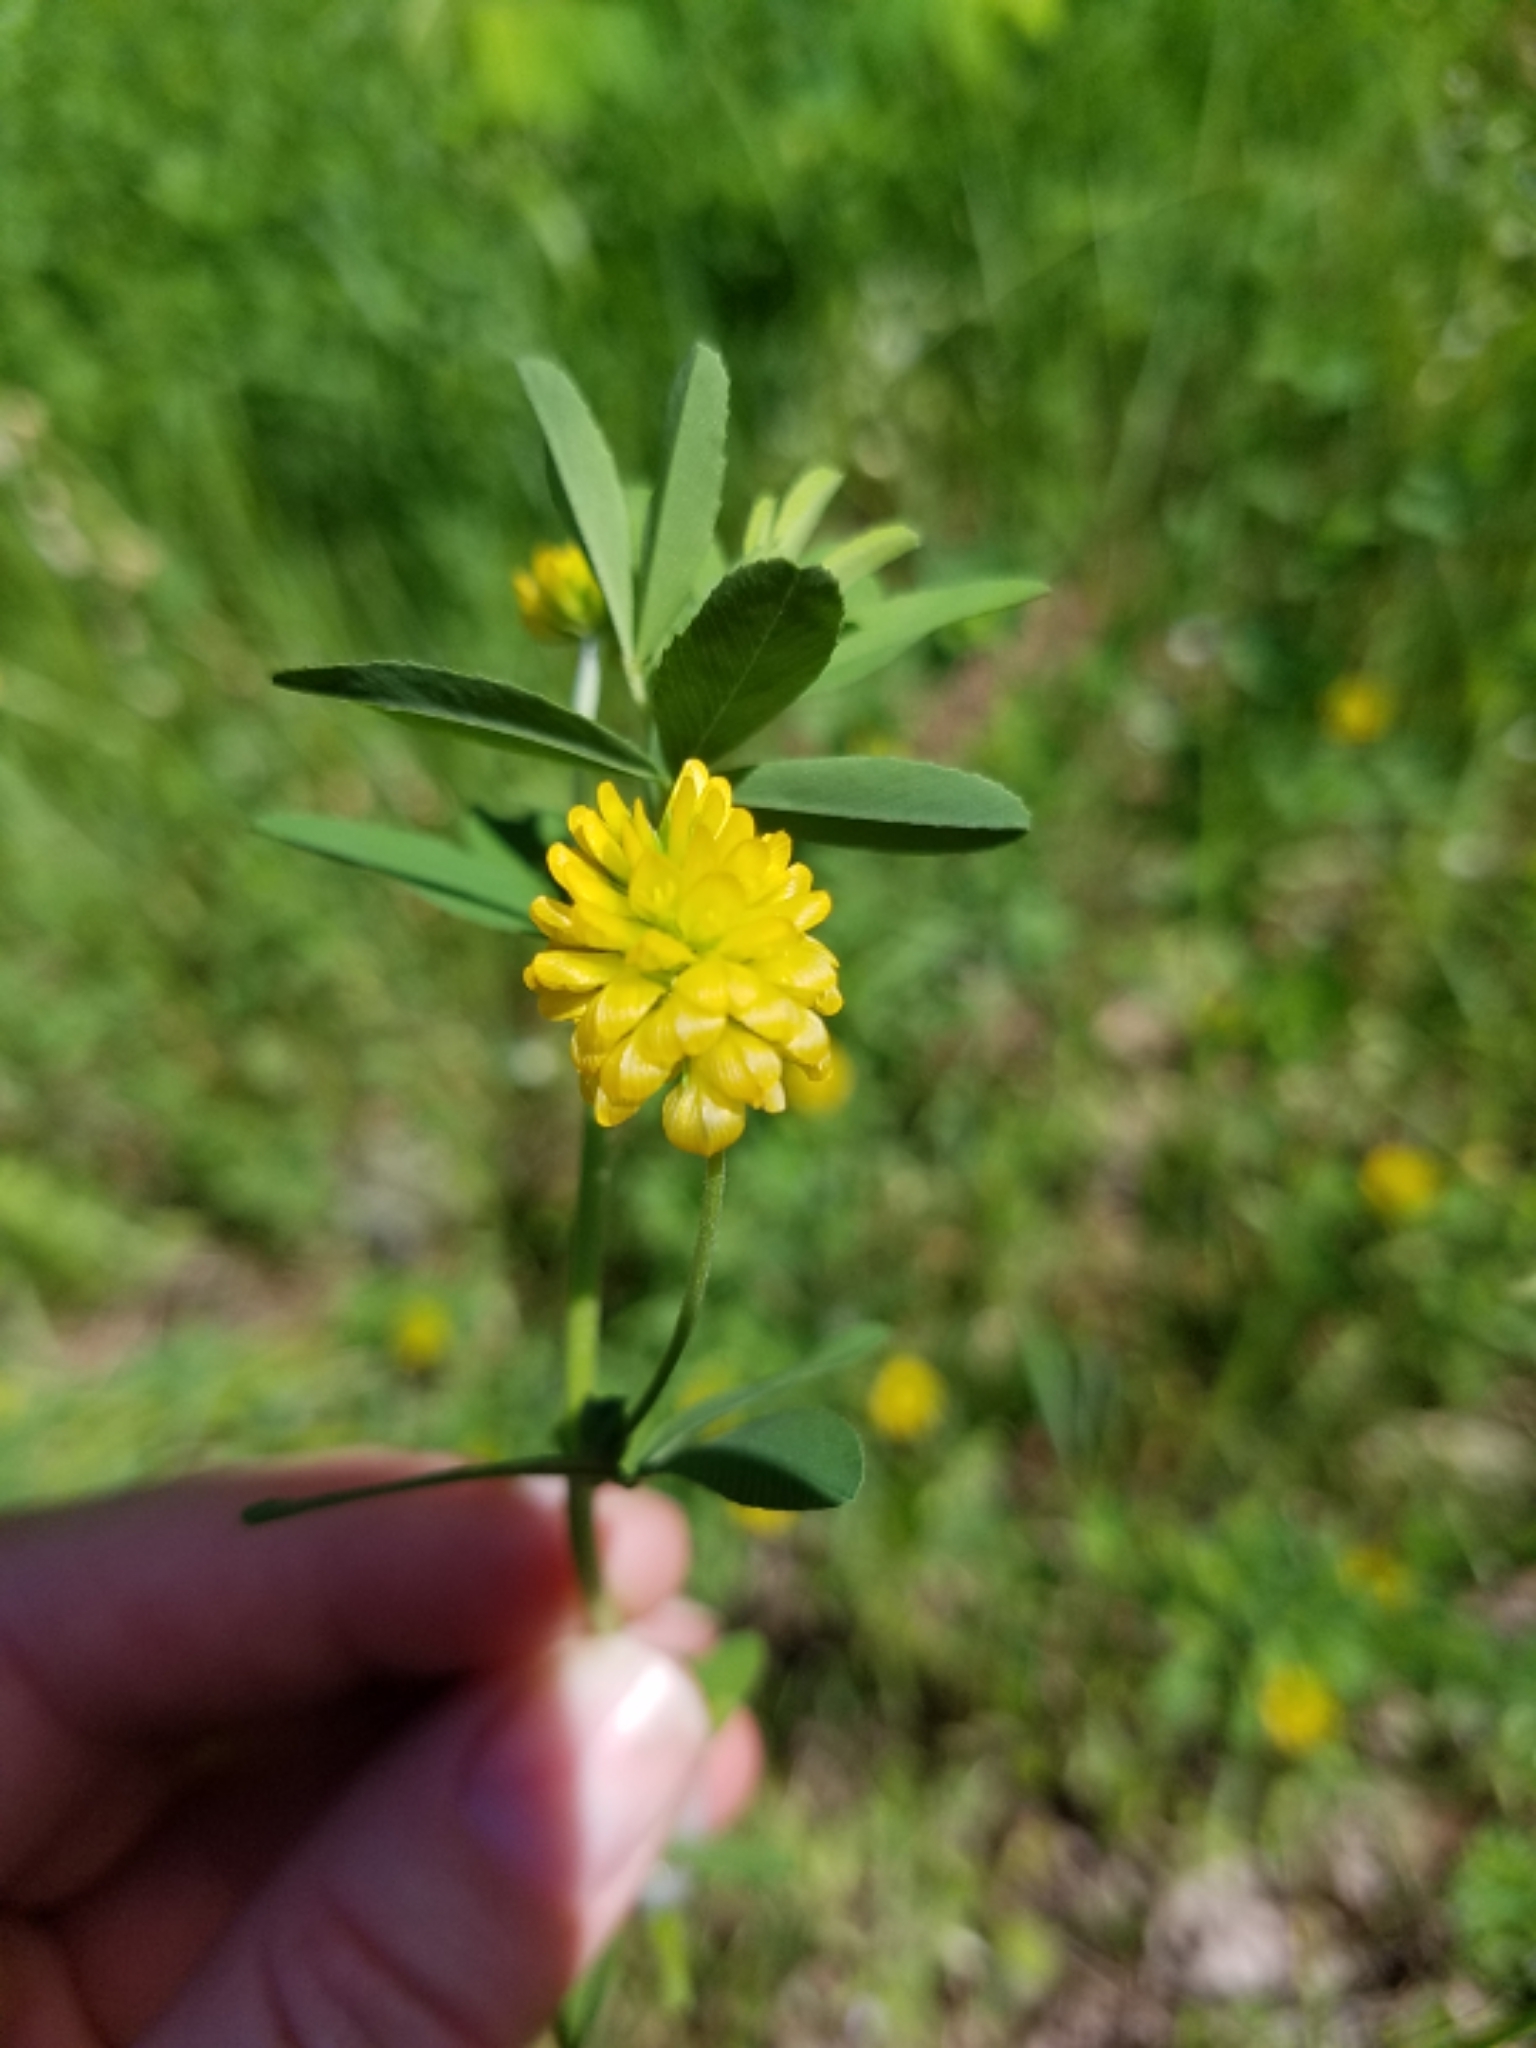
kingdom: Plantae
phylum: Tracheophyta
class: Magnoliopsida
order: Fabales
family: Fabaceae
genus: Trifolium
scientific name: Trifolium aureum
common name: Golden clover
